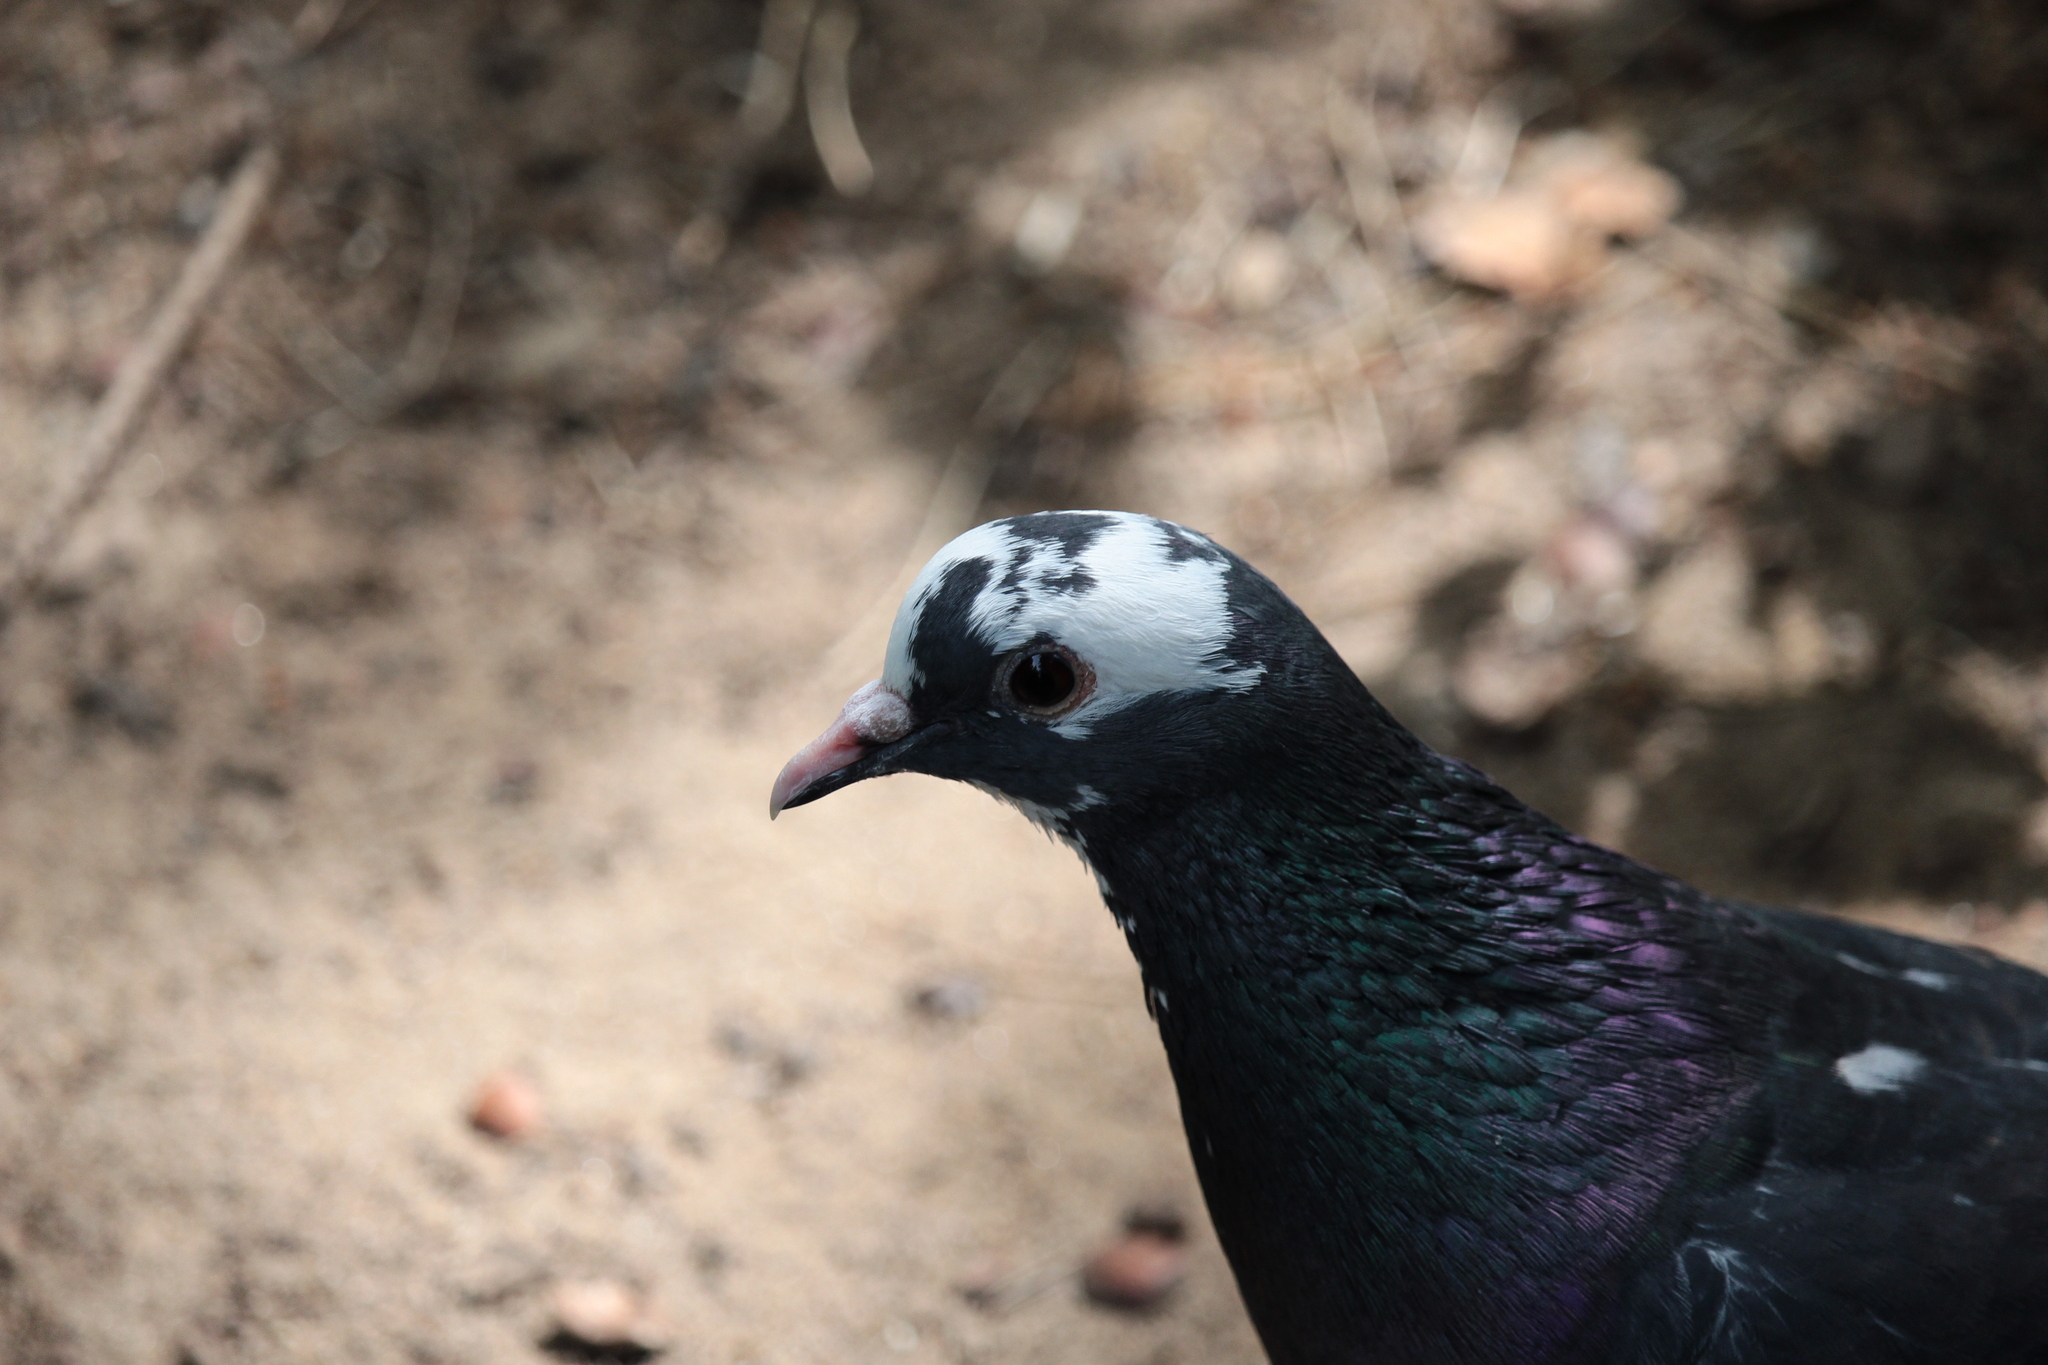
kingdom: Animalia
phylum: Chordata
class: Aves
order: Columbiformes
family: Columbidae
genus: Columba
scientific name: Columba livia
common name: Rock pigeon
